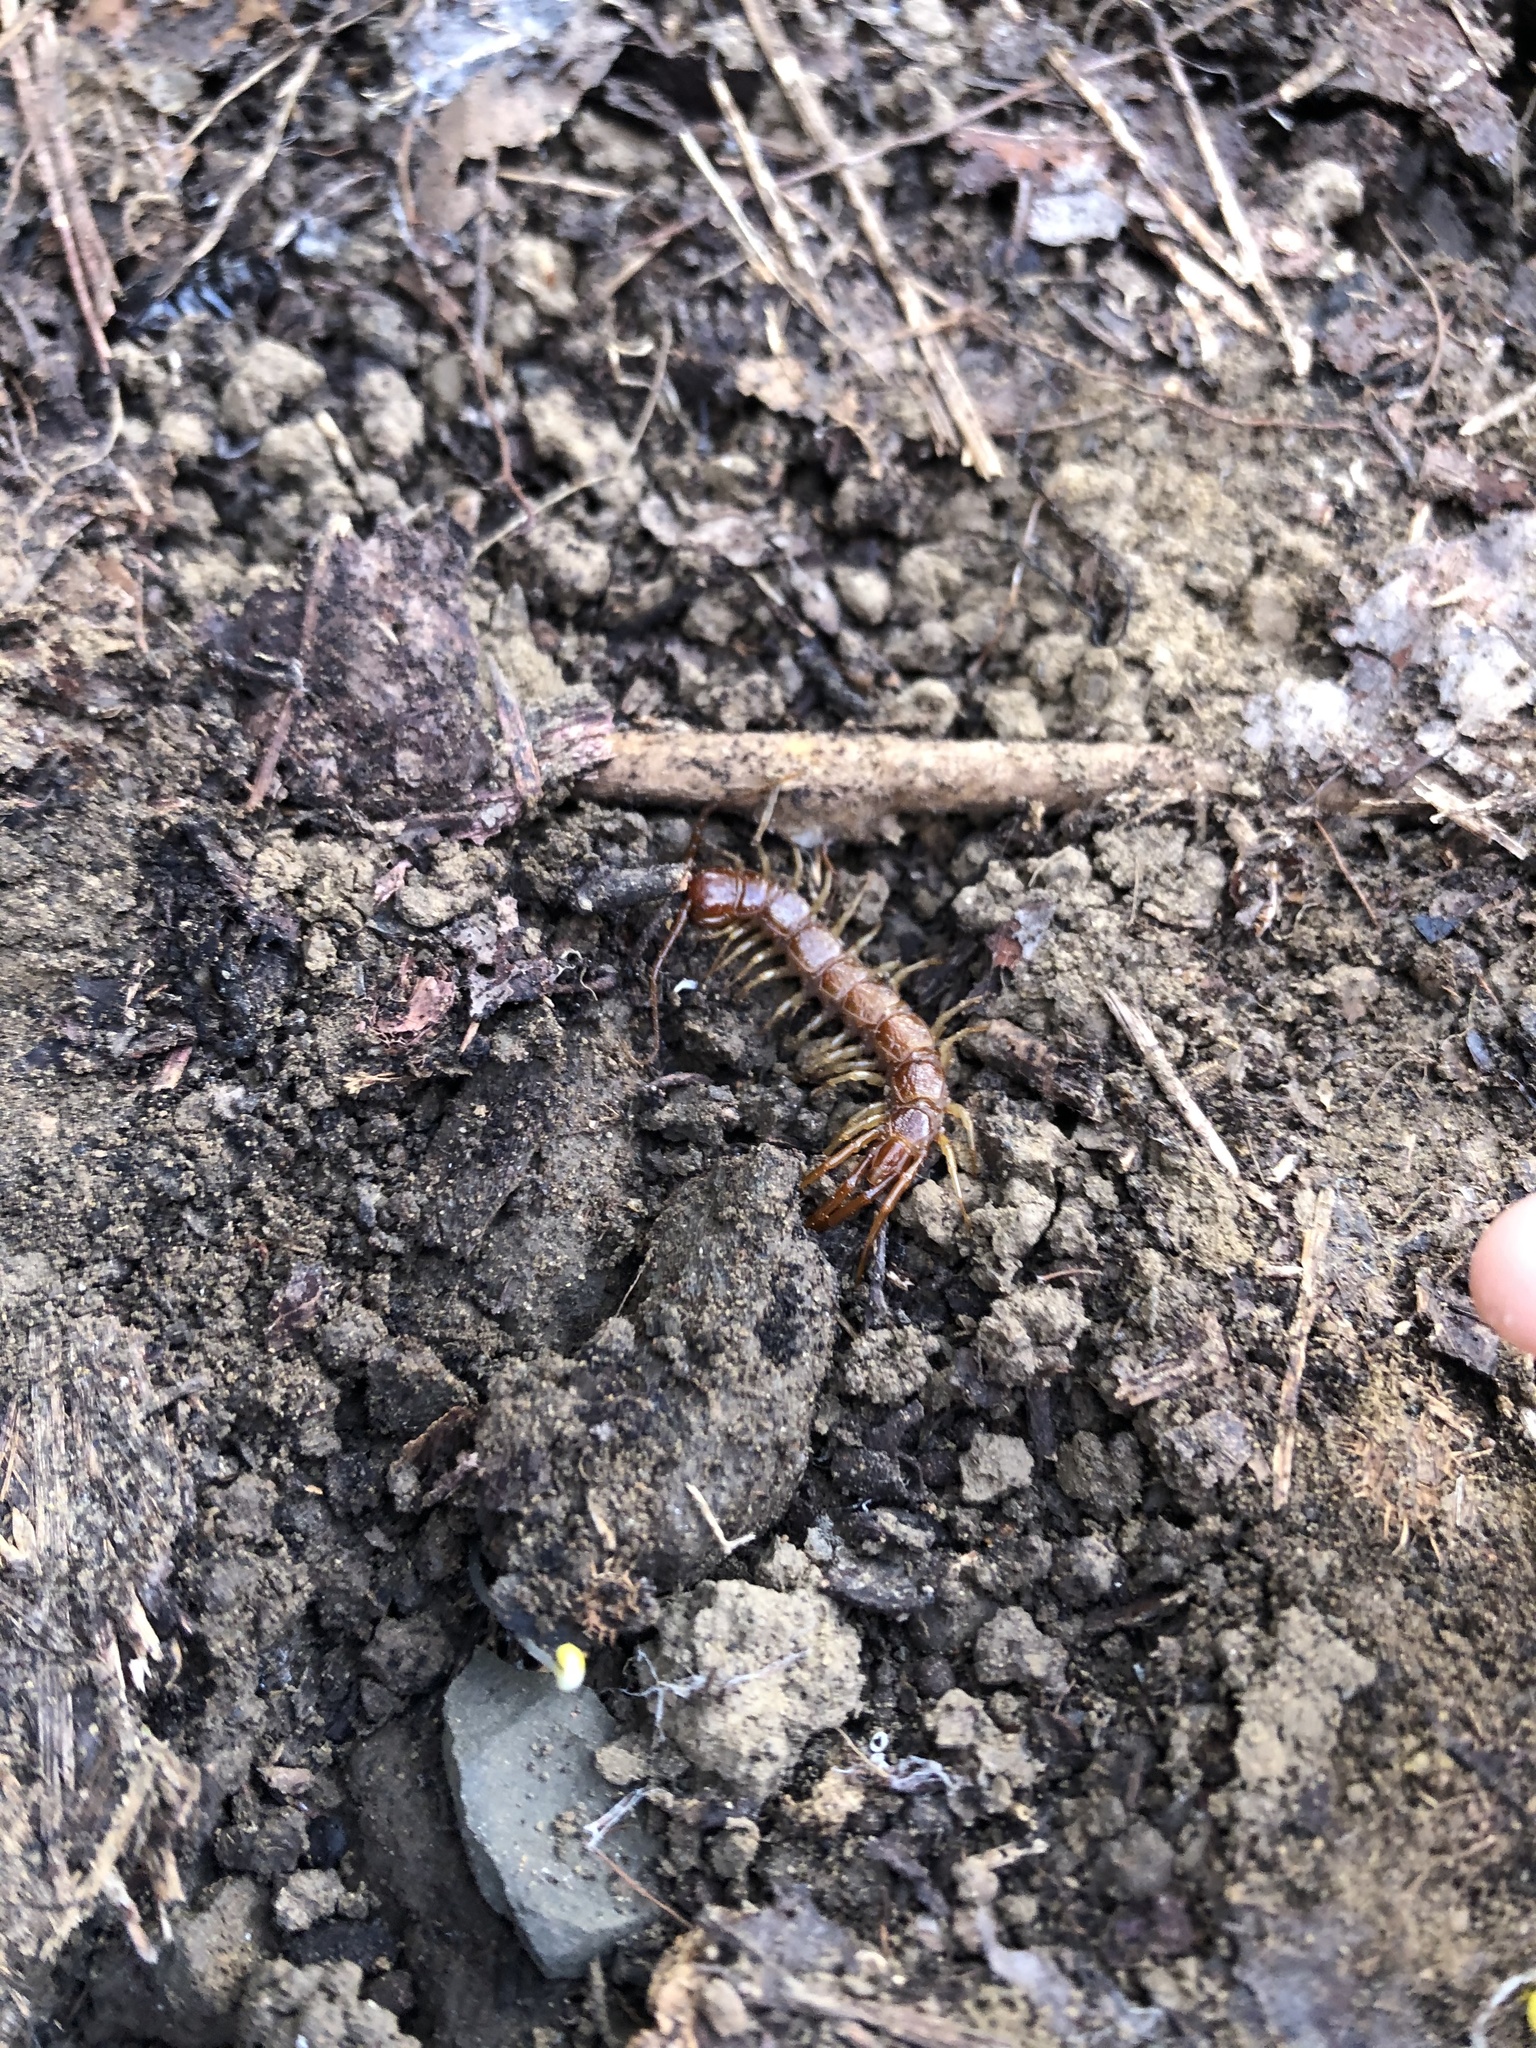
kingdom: Animalia
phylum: Arthropoda
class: Chilopoda
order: Lithobiomorpha
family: Lithobiidae
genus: Bothropolys
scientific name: Bothropolys xanti
